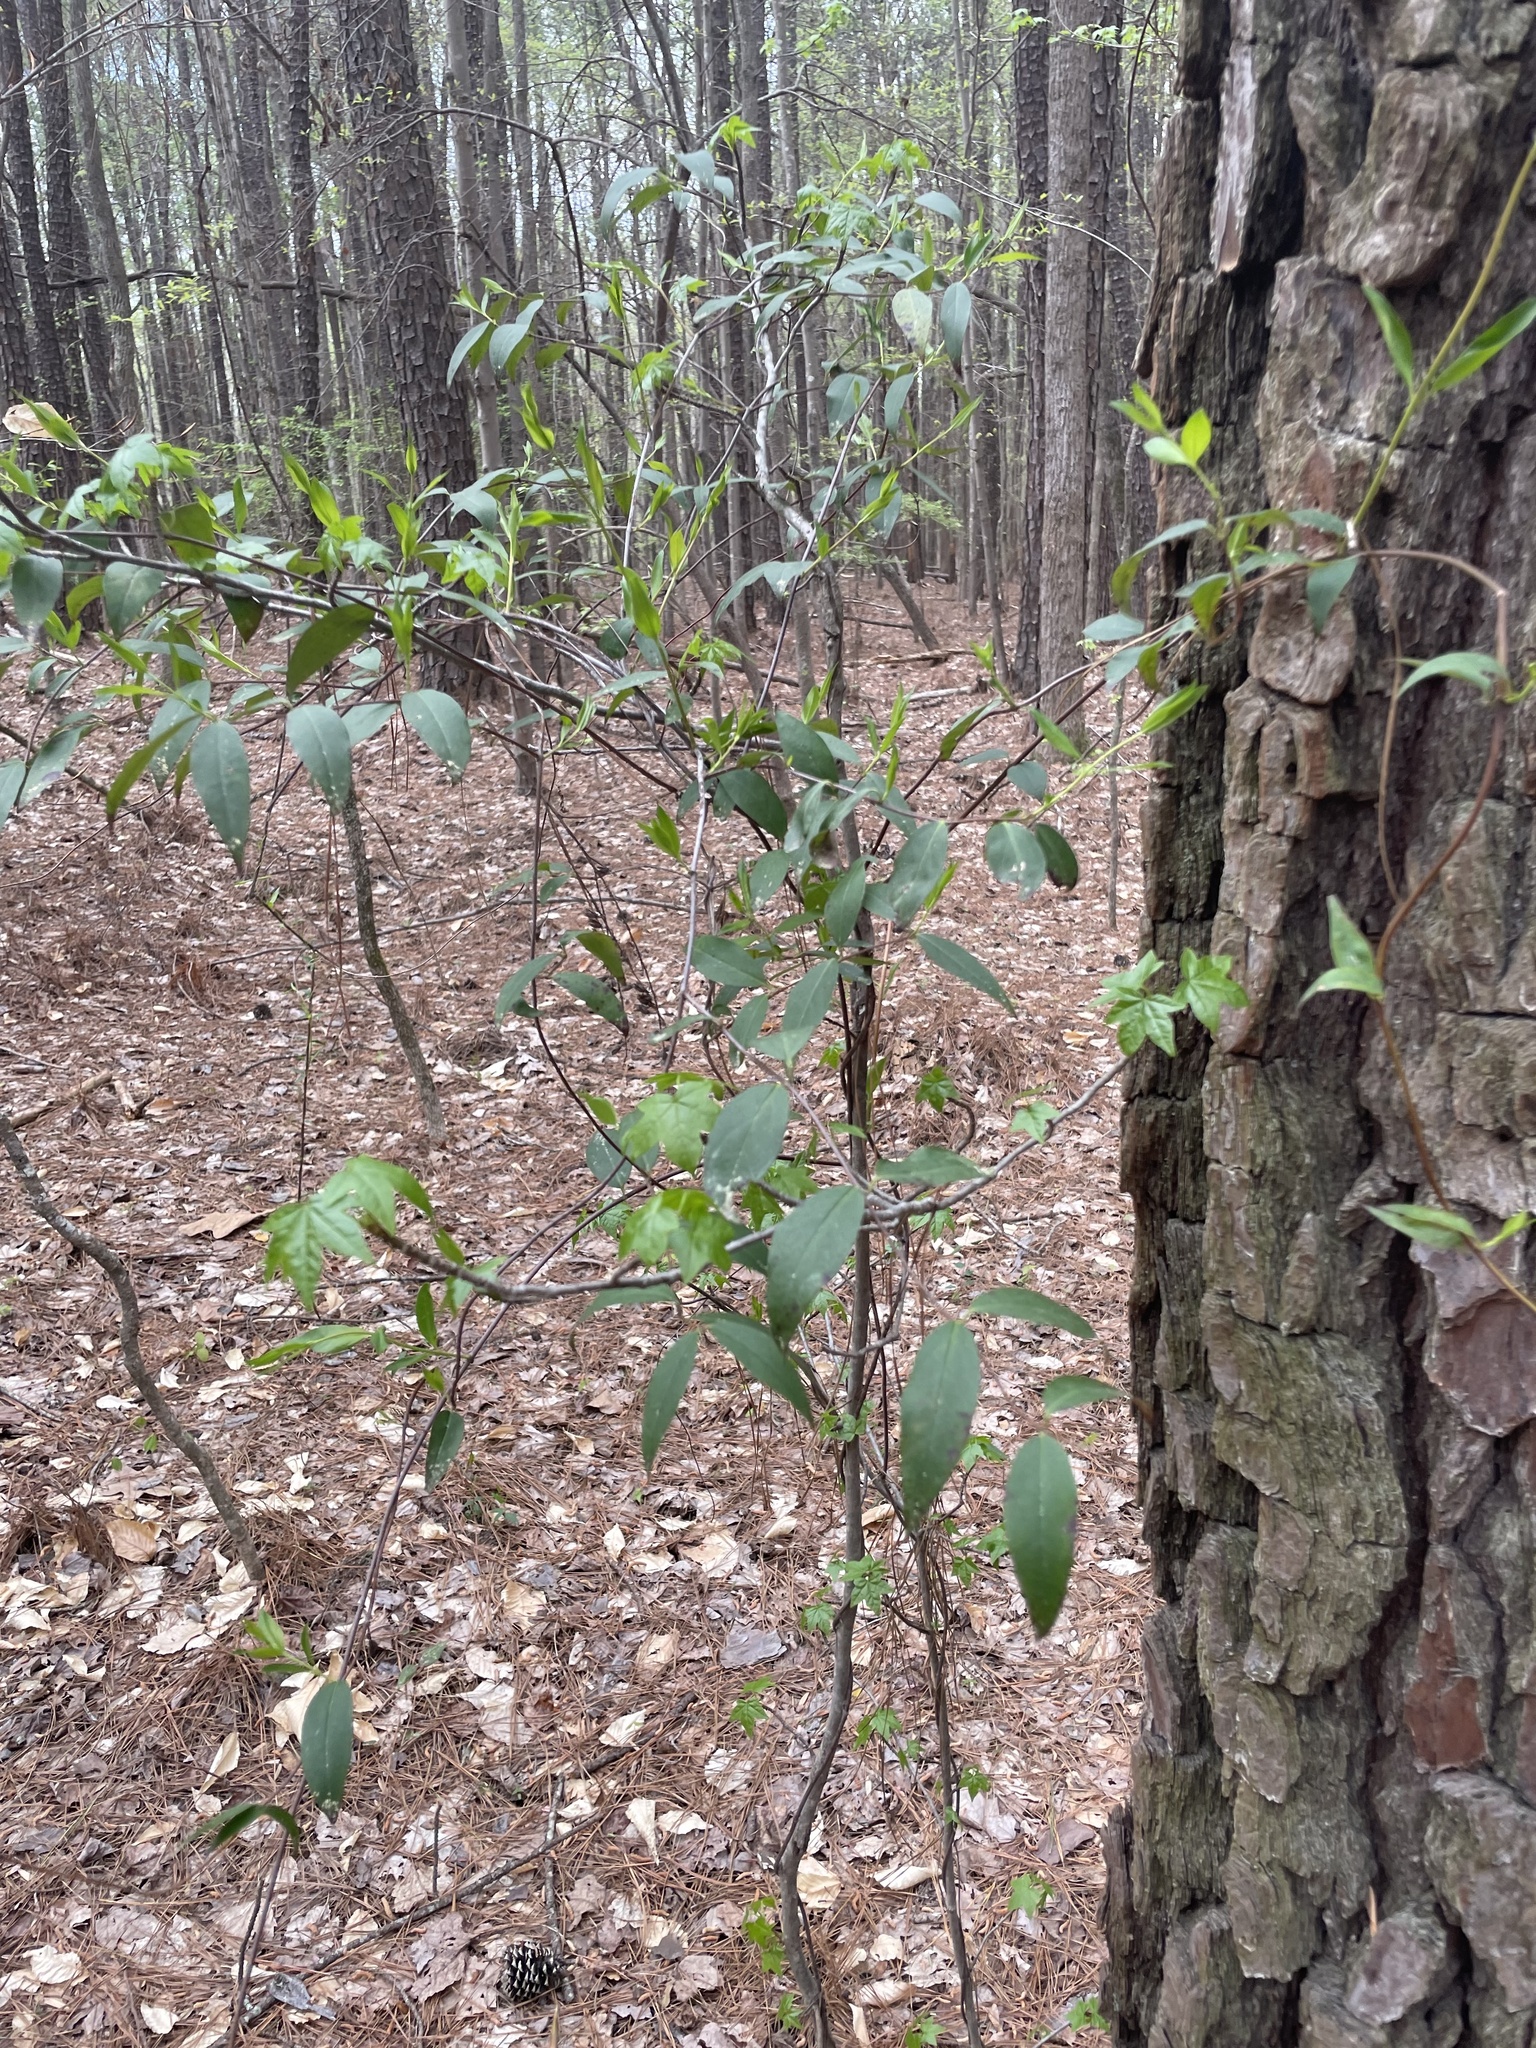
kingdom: Plantae
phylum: Tracheophyta
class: Magnoliopsida
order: Gentianales
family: Gelsemiaceae
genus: Gelsemium
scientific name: Gelsemium sempervirens
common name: Carolina-jasmine
